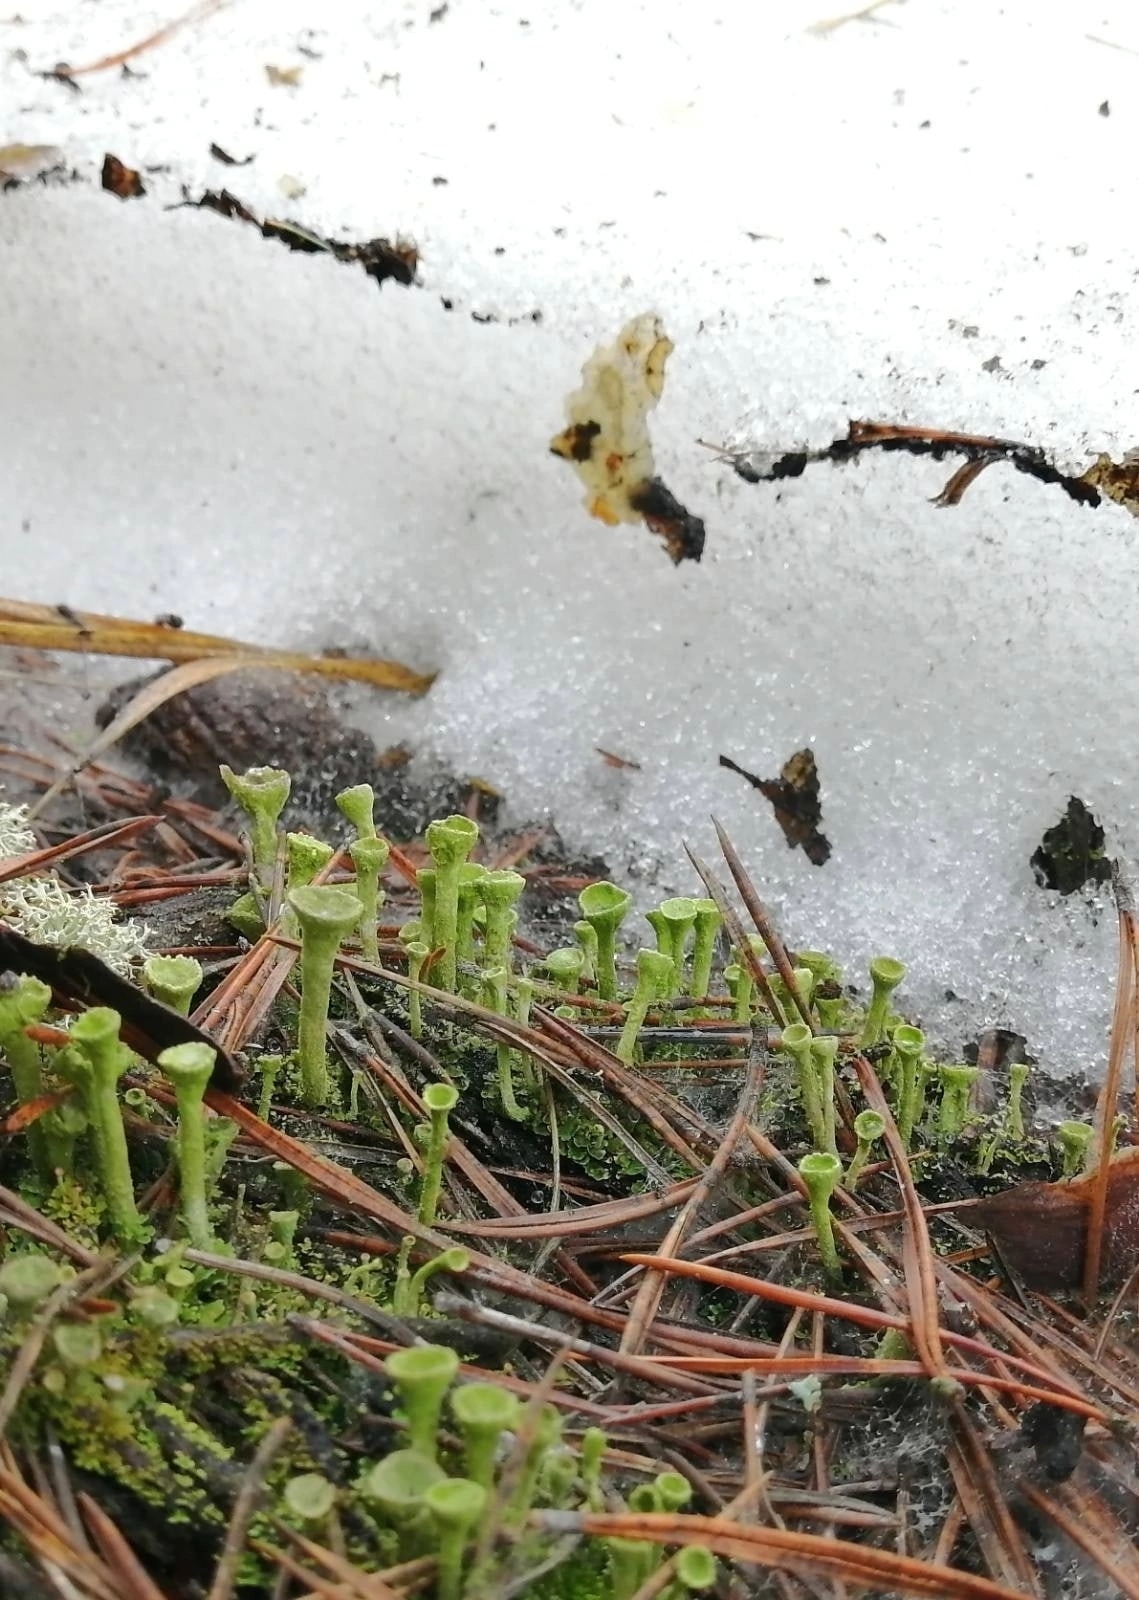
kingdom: Fungi
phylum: Ascomycota
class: Lecanoromycetes
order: Lecanorales
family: Cladoniaceae
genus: Cladonia
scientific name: Cladonia fimbriata
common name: Powdered trumpet lichen
